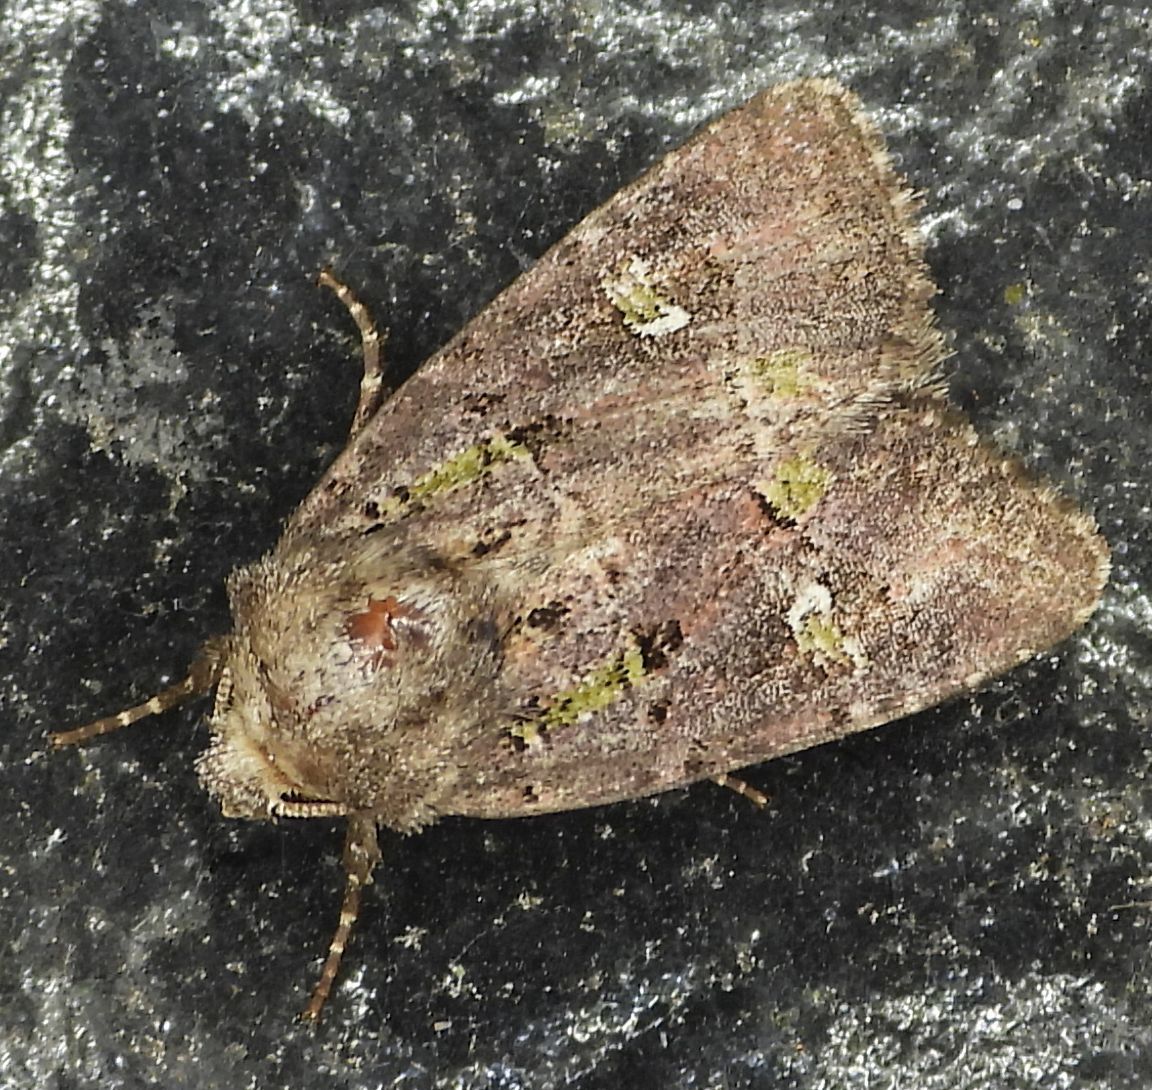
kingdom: Animalia
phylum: Arthropoda
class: Insecta
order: Lepidoptera
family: Noctuidae
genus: Lacinipolia
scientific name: Lacinipolia renigera
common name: Kidney-spotted minor
